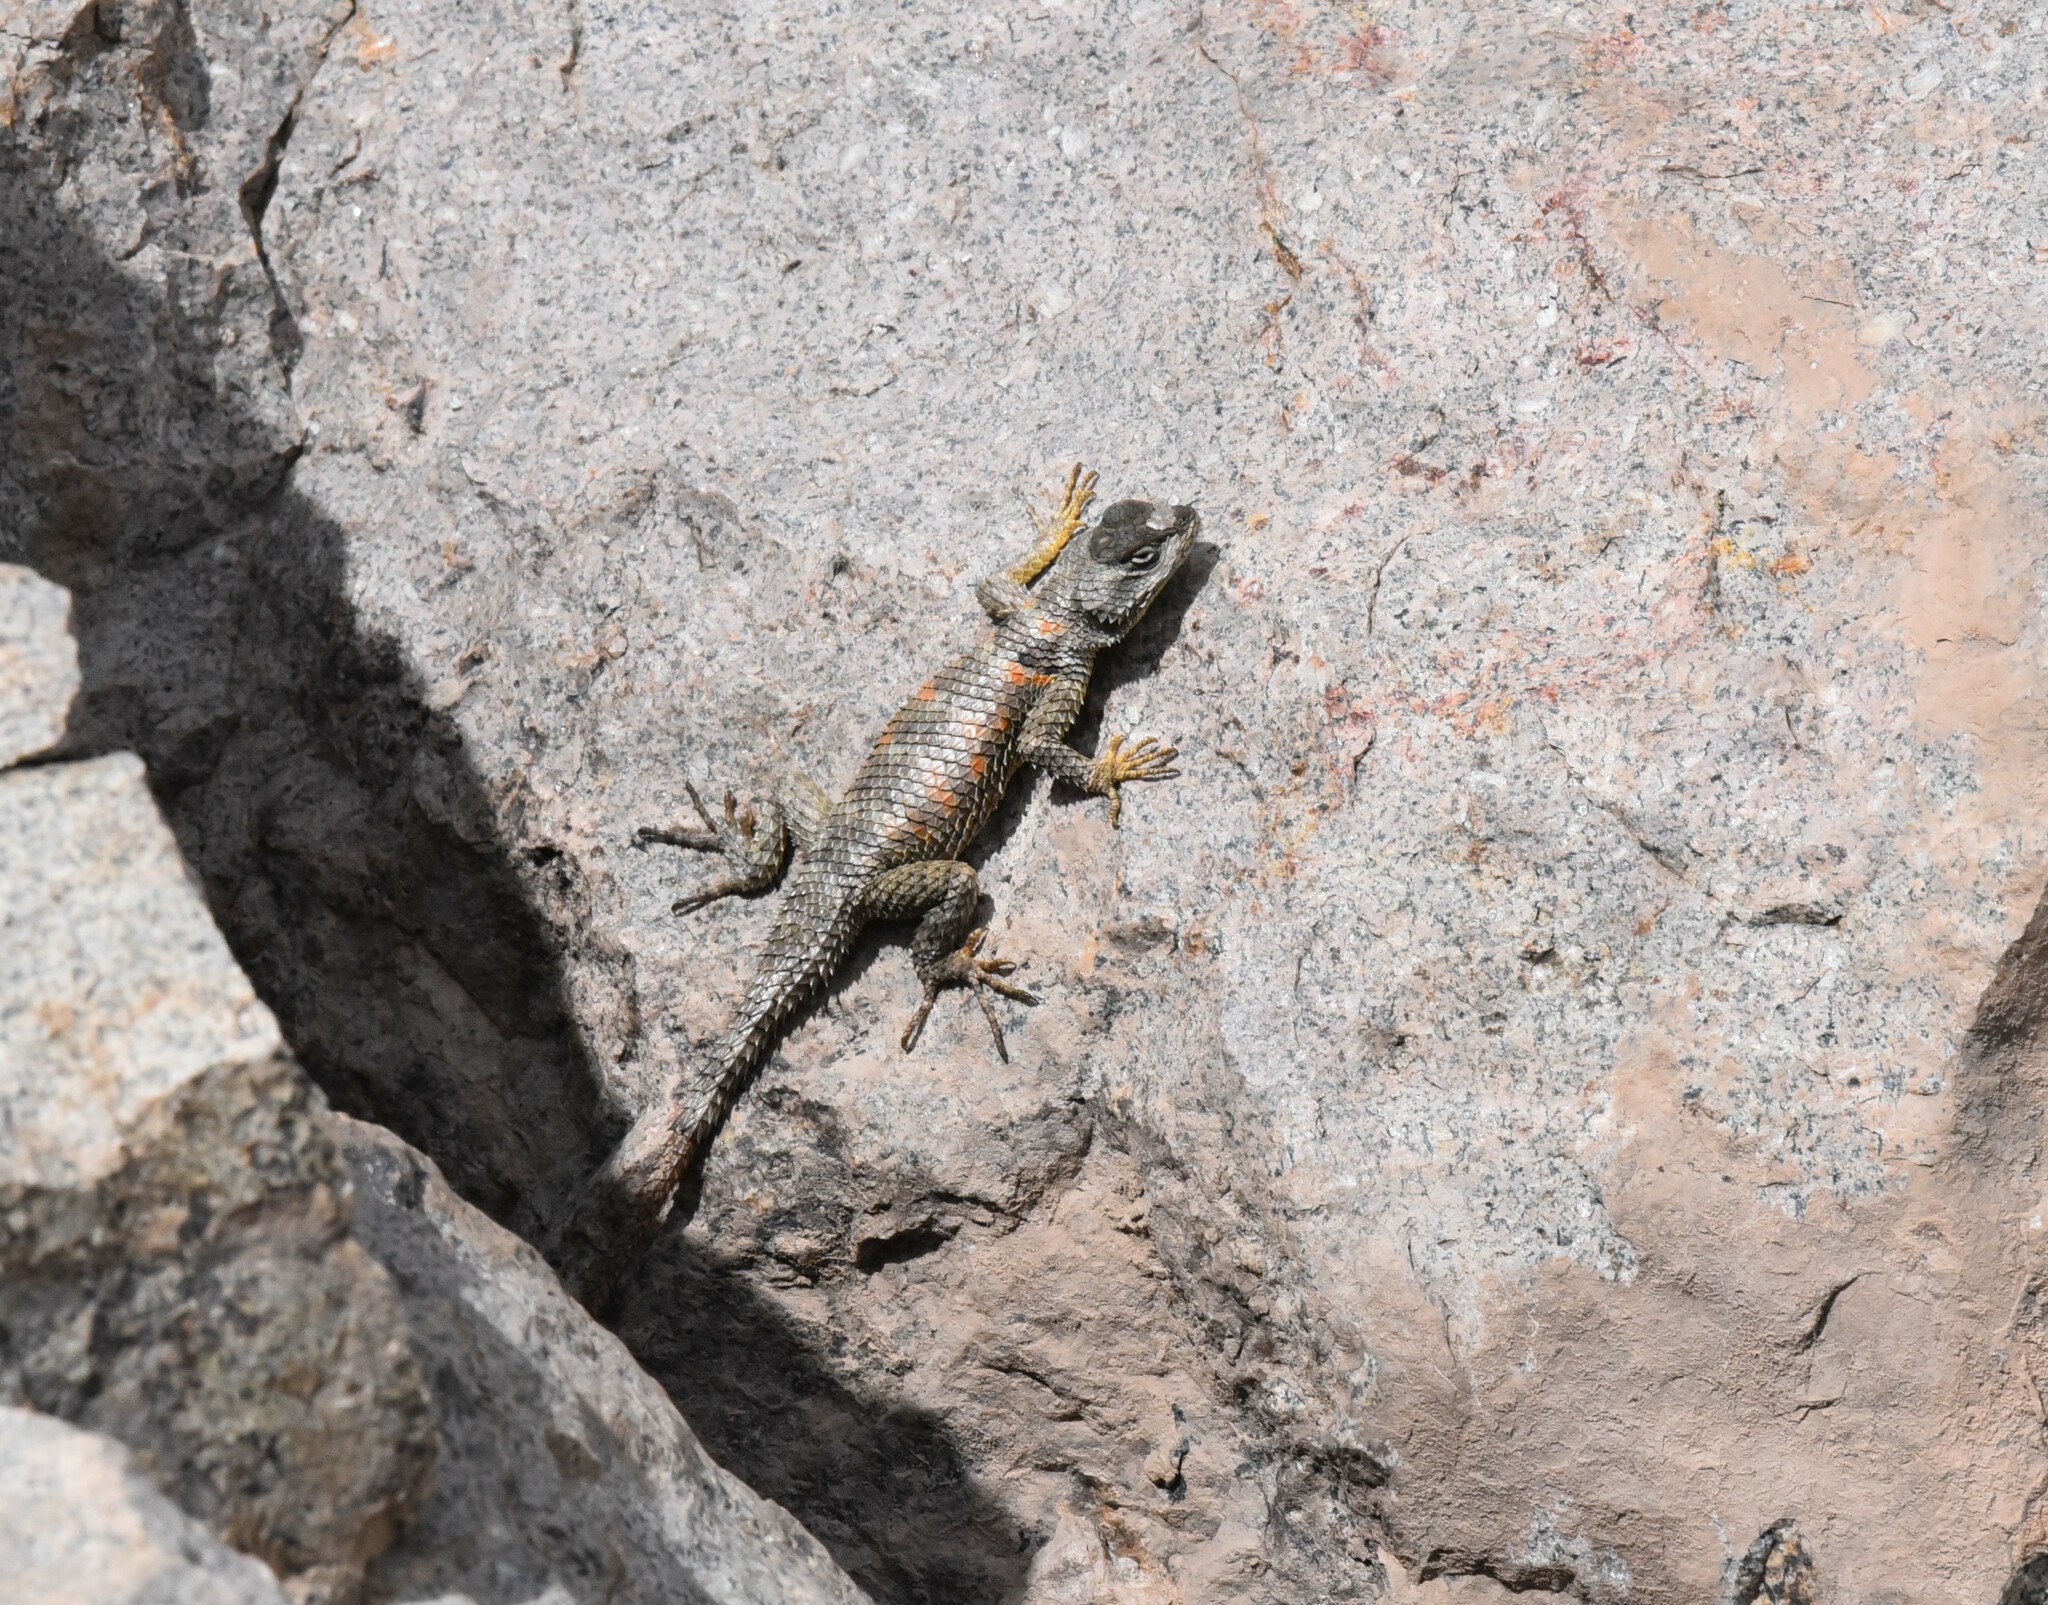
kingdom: Animalia
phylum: Chordata
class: Squamata
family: Phrynosomatidae
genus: Sceloporus
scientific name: Sceloporus poinsettii
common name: Crevice spiny lizard
